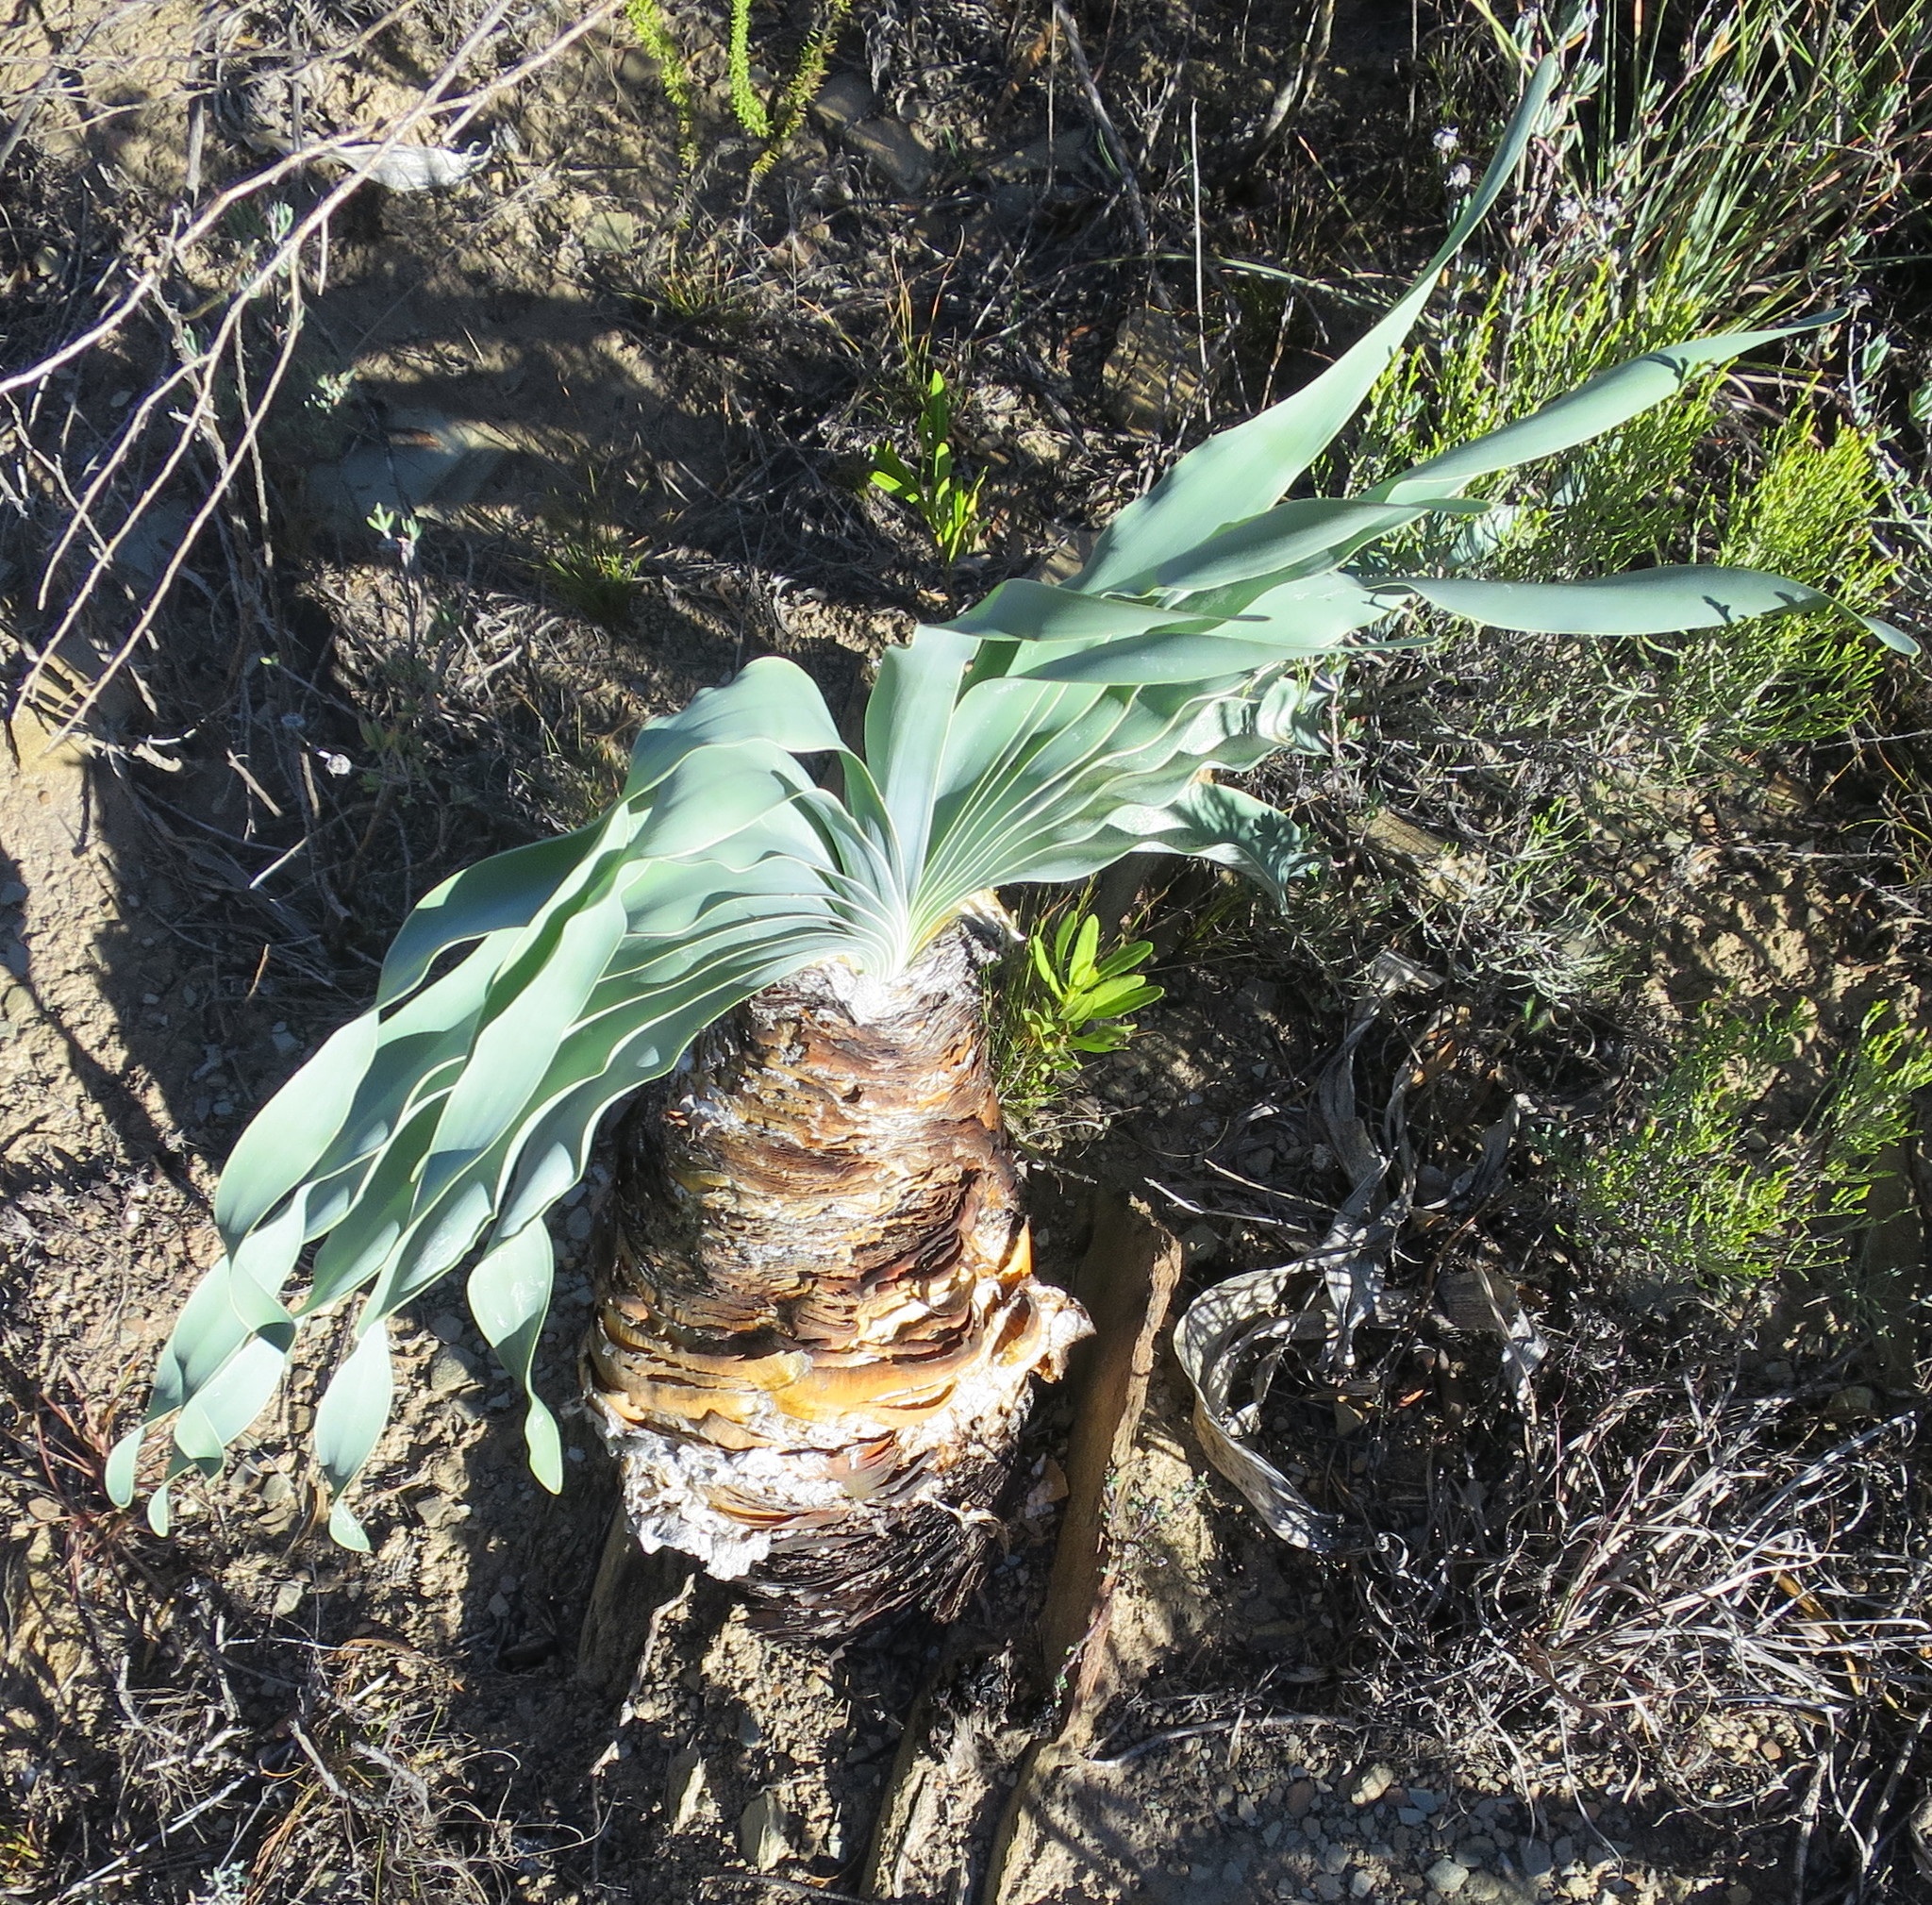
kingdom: Plantae
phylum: Tracheophyta
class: Liliopsida
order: Asparagales
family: Amaryllidaceae
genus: Boophone
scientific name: Boophone disticha
